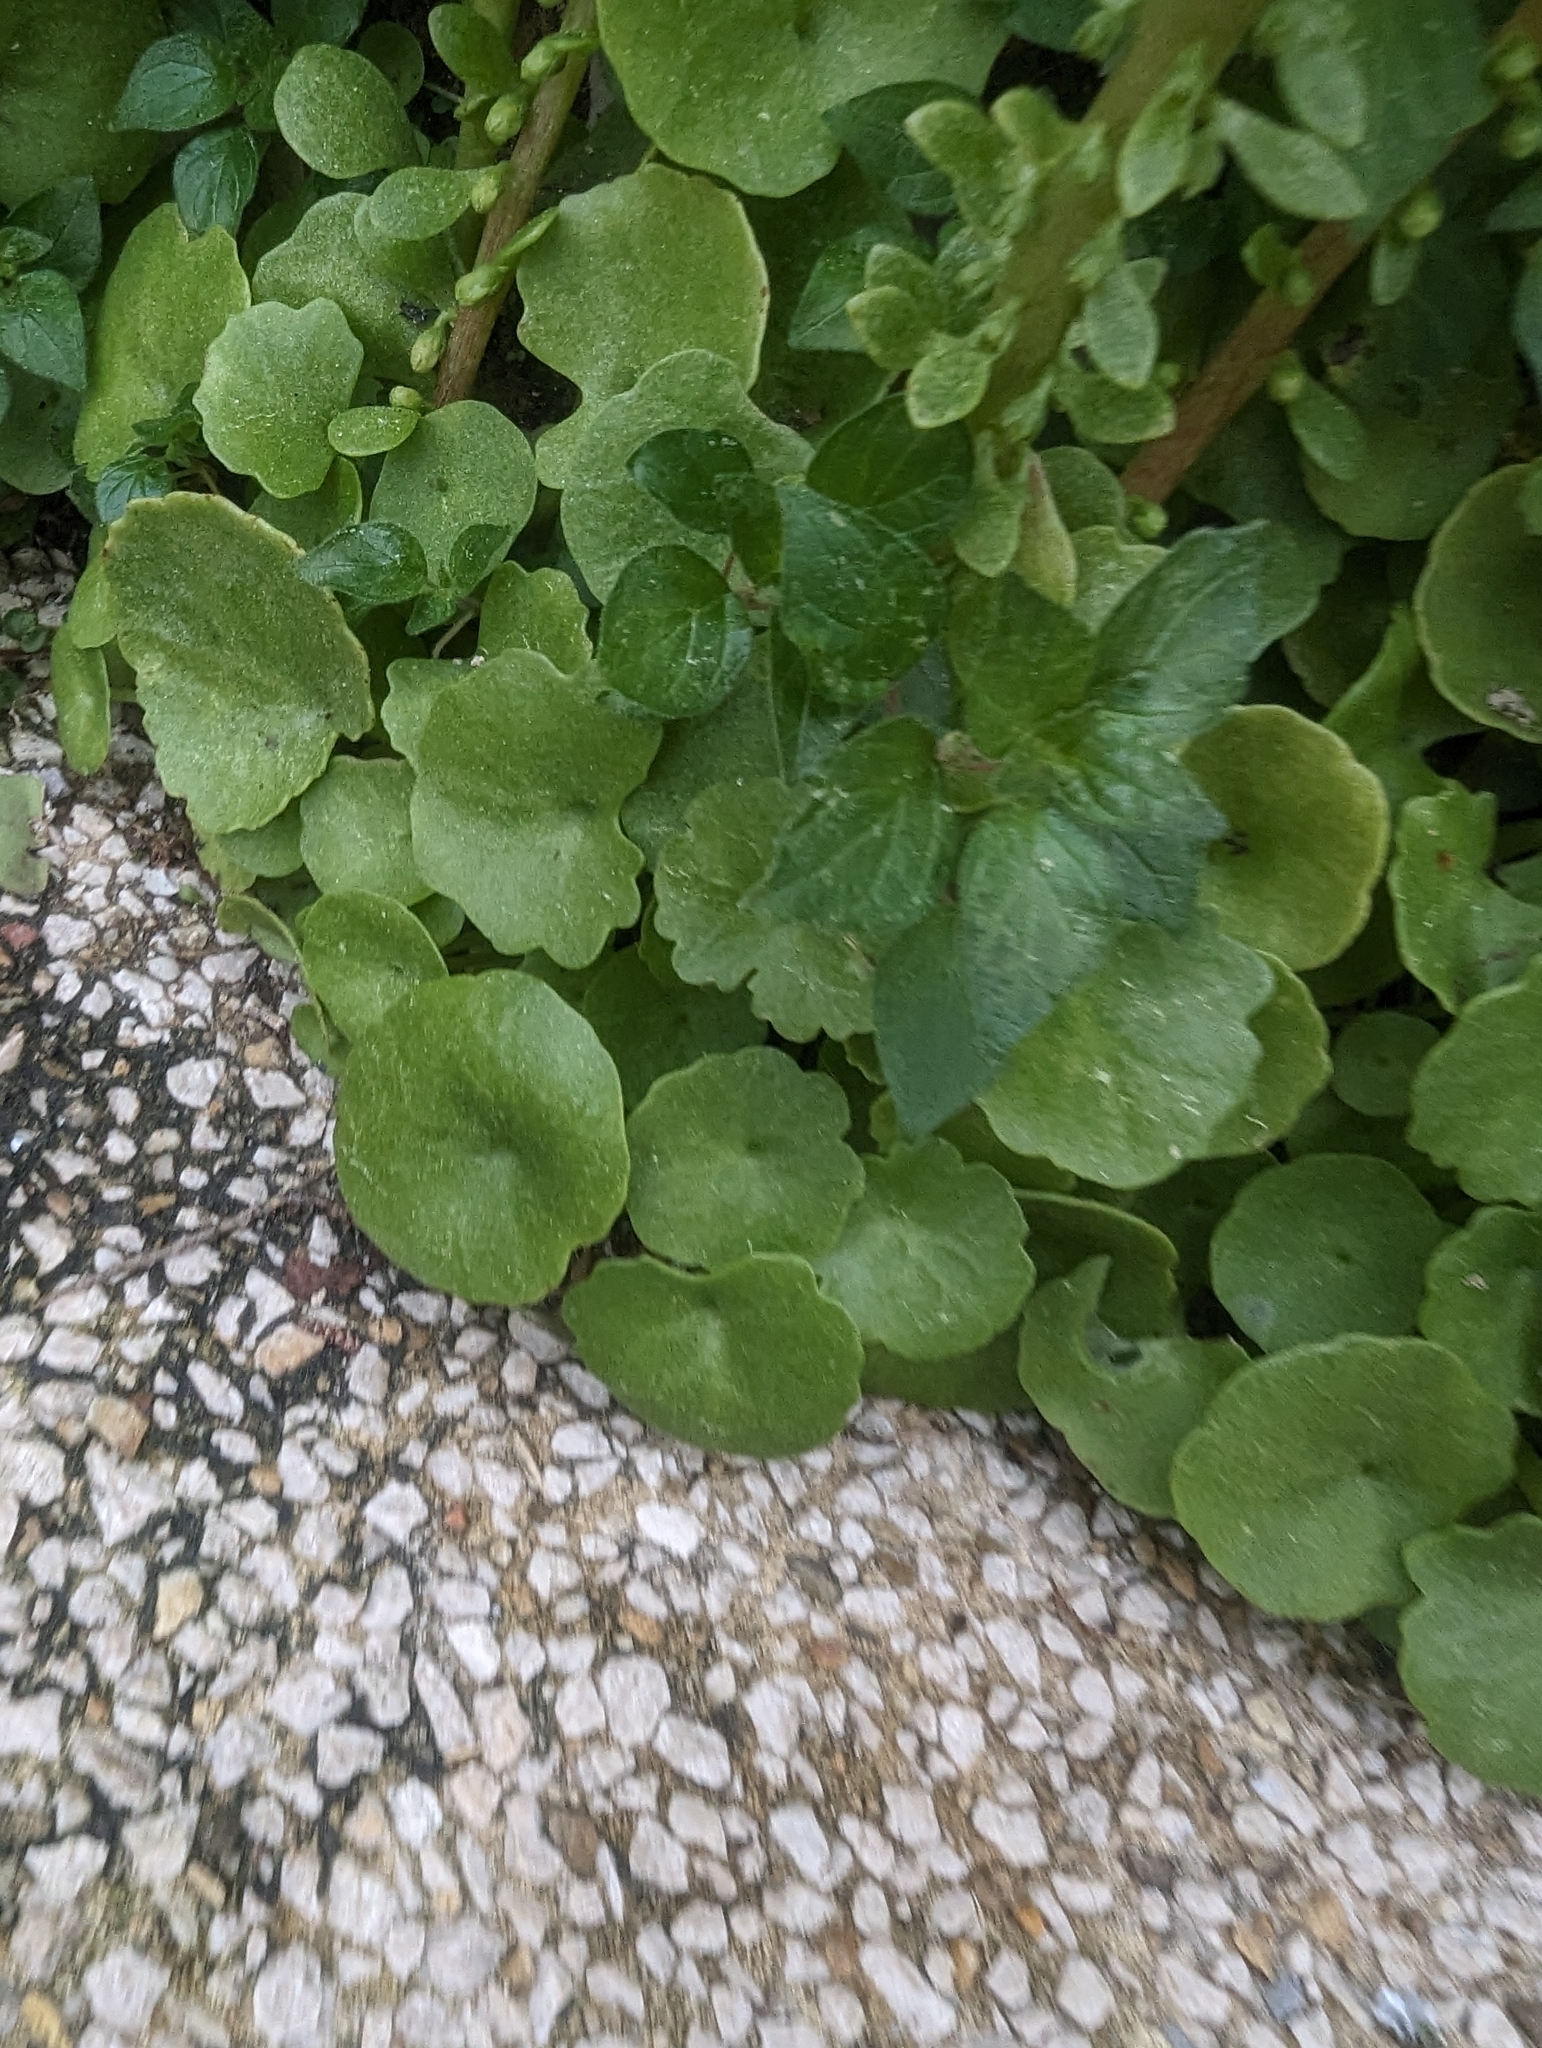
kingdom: Plantae
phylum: Tracheophyta
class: Magnoliopsida
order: Saxifragales
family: Crassulaceae
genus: Umbilicus
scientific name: Umbilicus rupestris
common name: Navelwort
